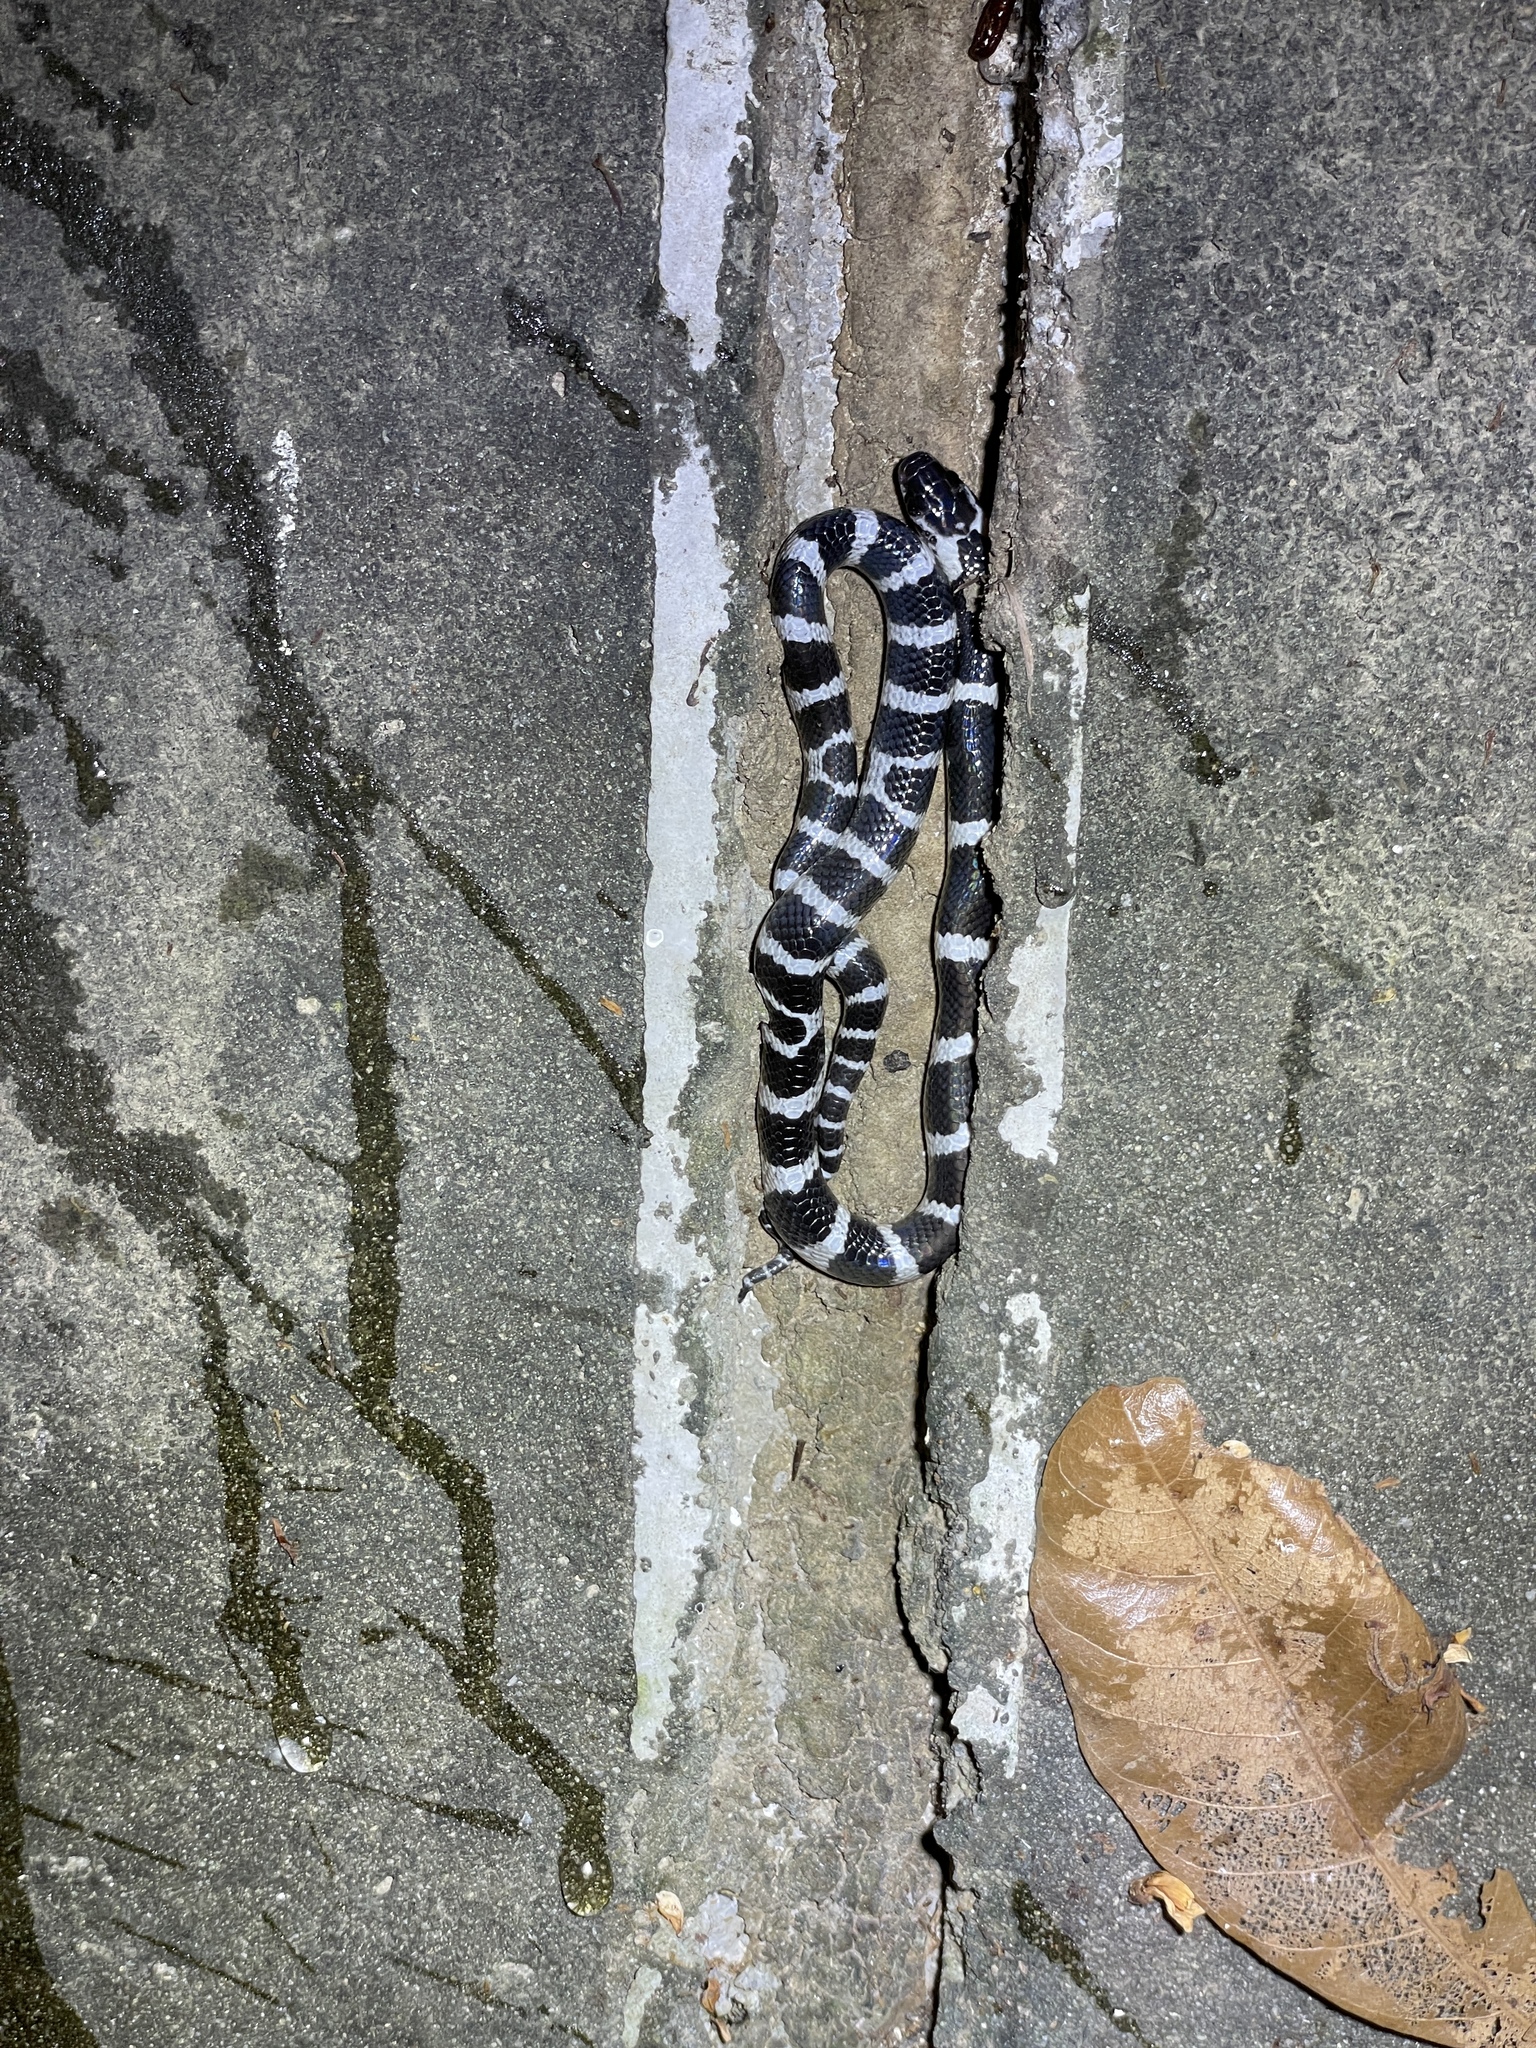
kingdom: Animalia
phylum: Chordata
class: Squamata
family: Elapidae
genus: Bungarus
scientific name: Bungarus multicinctus
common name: Many-banded krait
